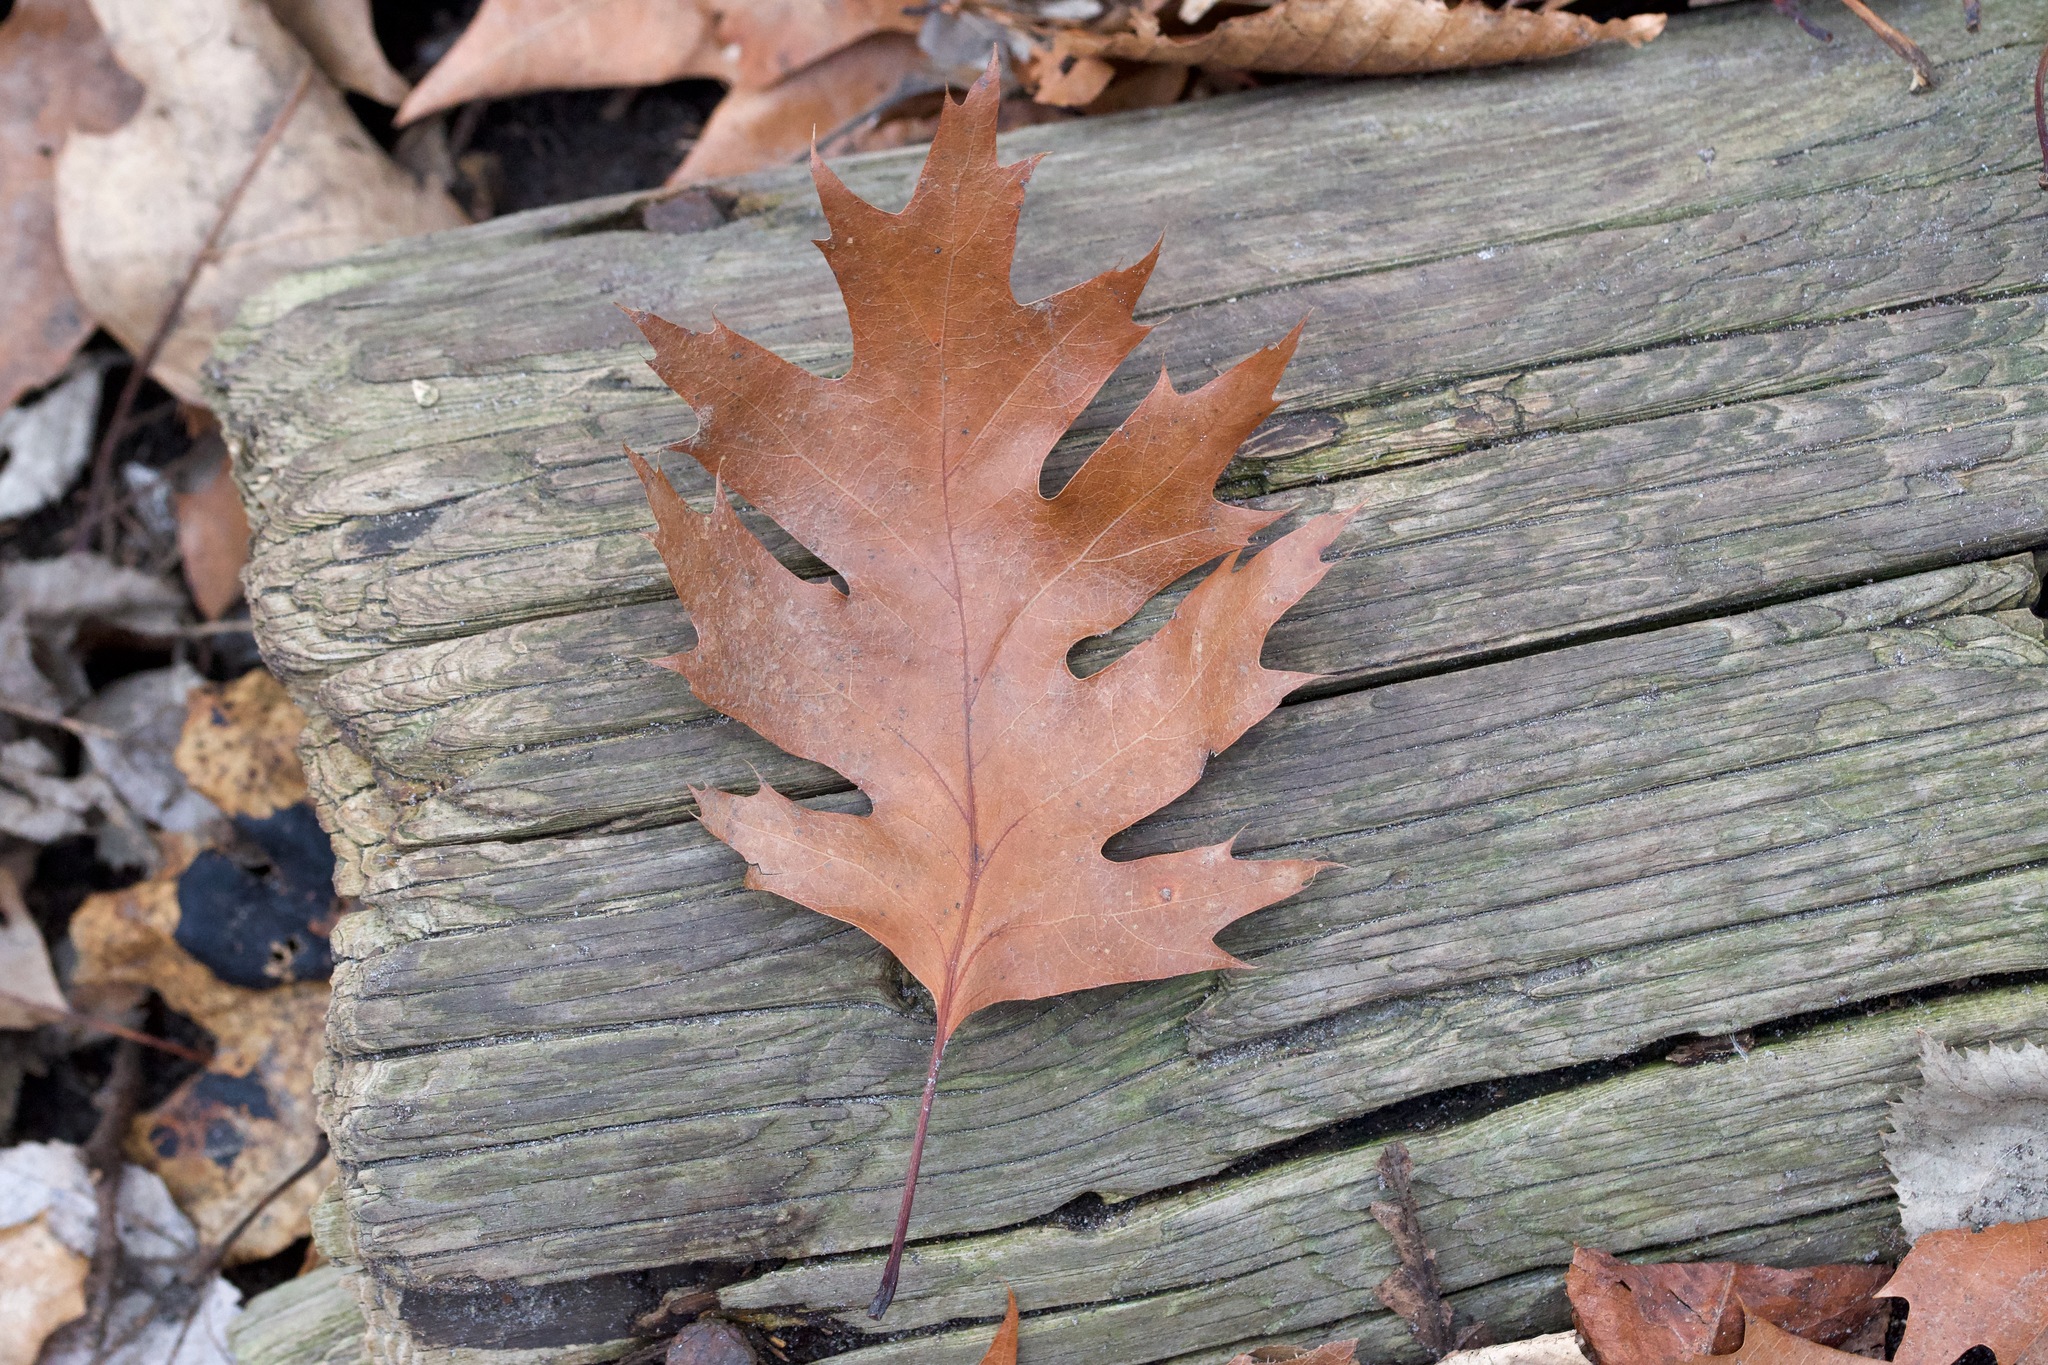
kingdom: Plantae
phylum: Tracheophyta
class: Magnoliopsida
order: Fagales
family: Fagaceae
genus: Quercus
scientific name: Quercus rubra
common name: Red oak
